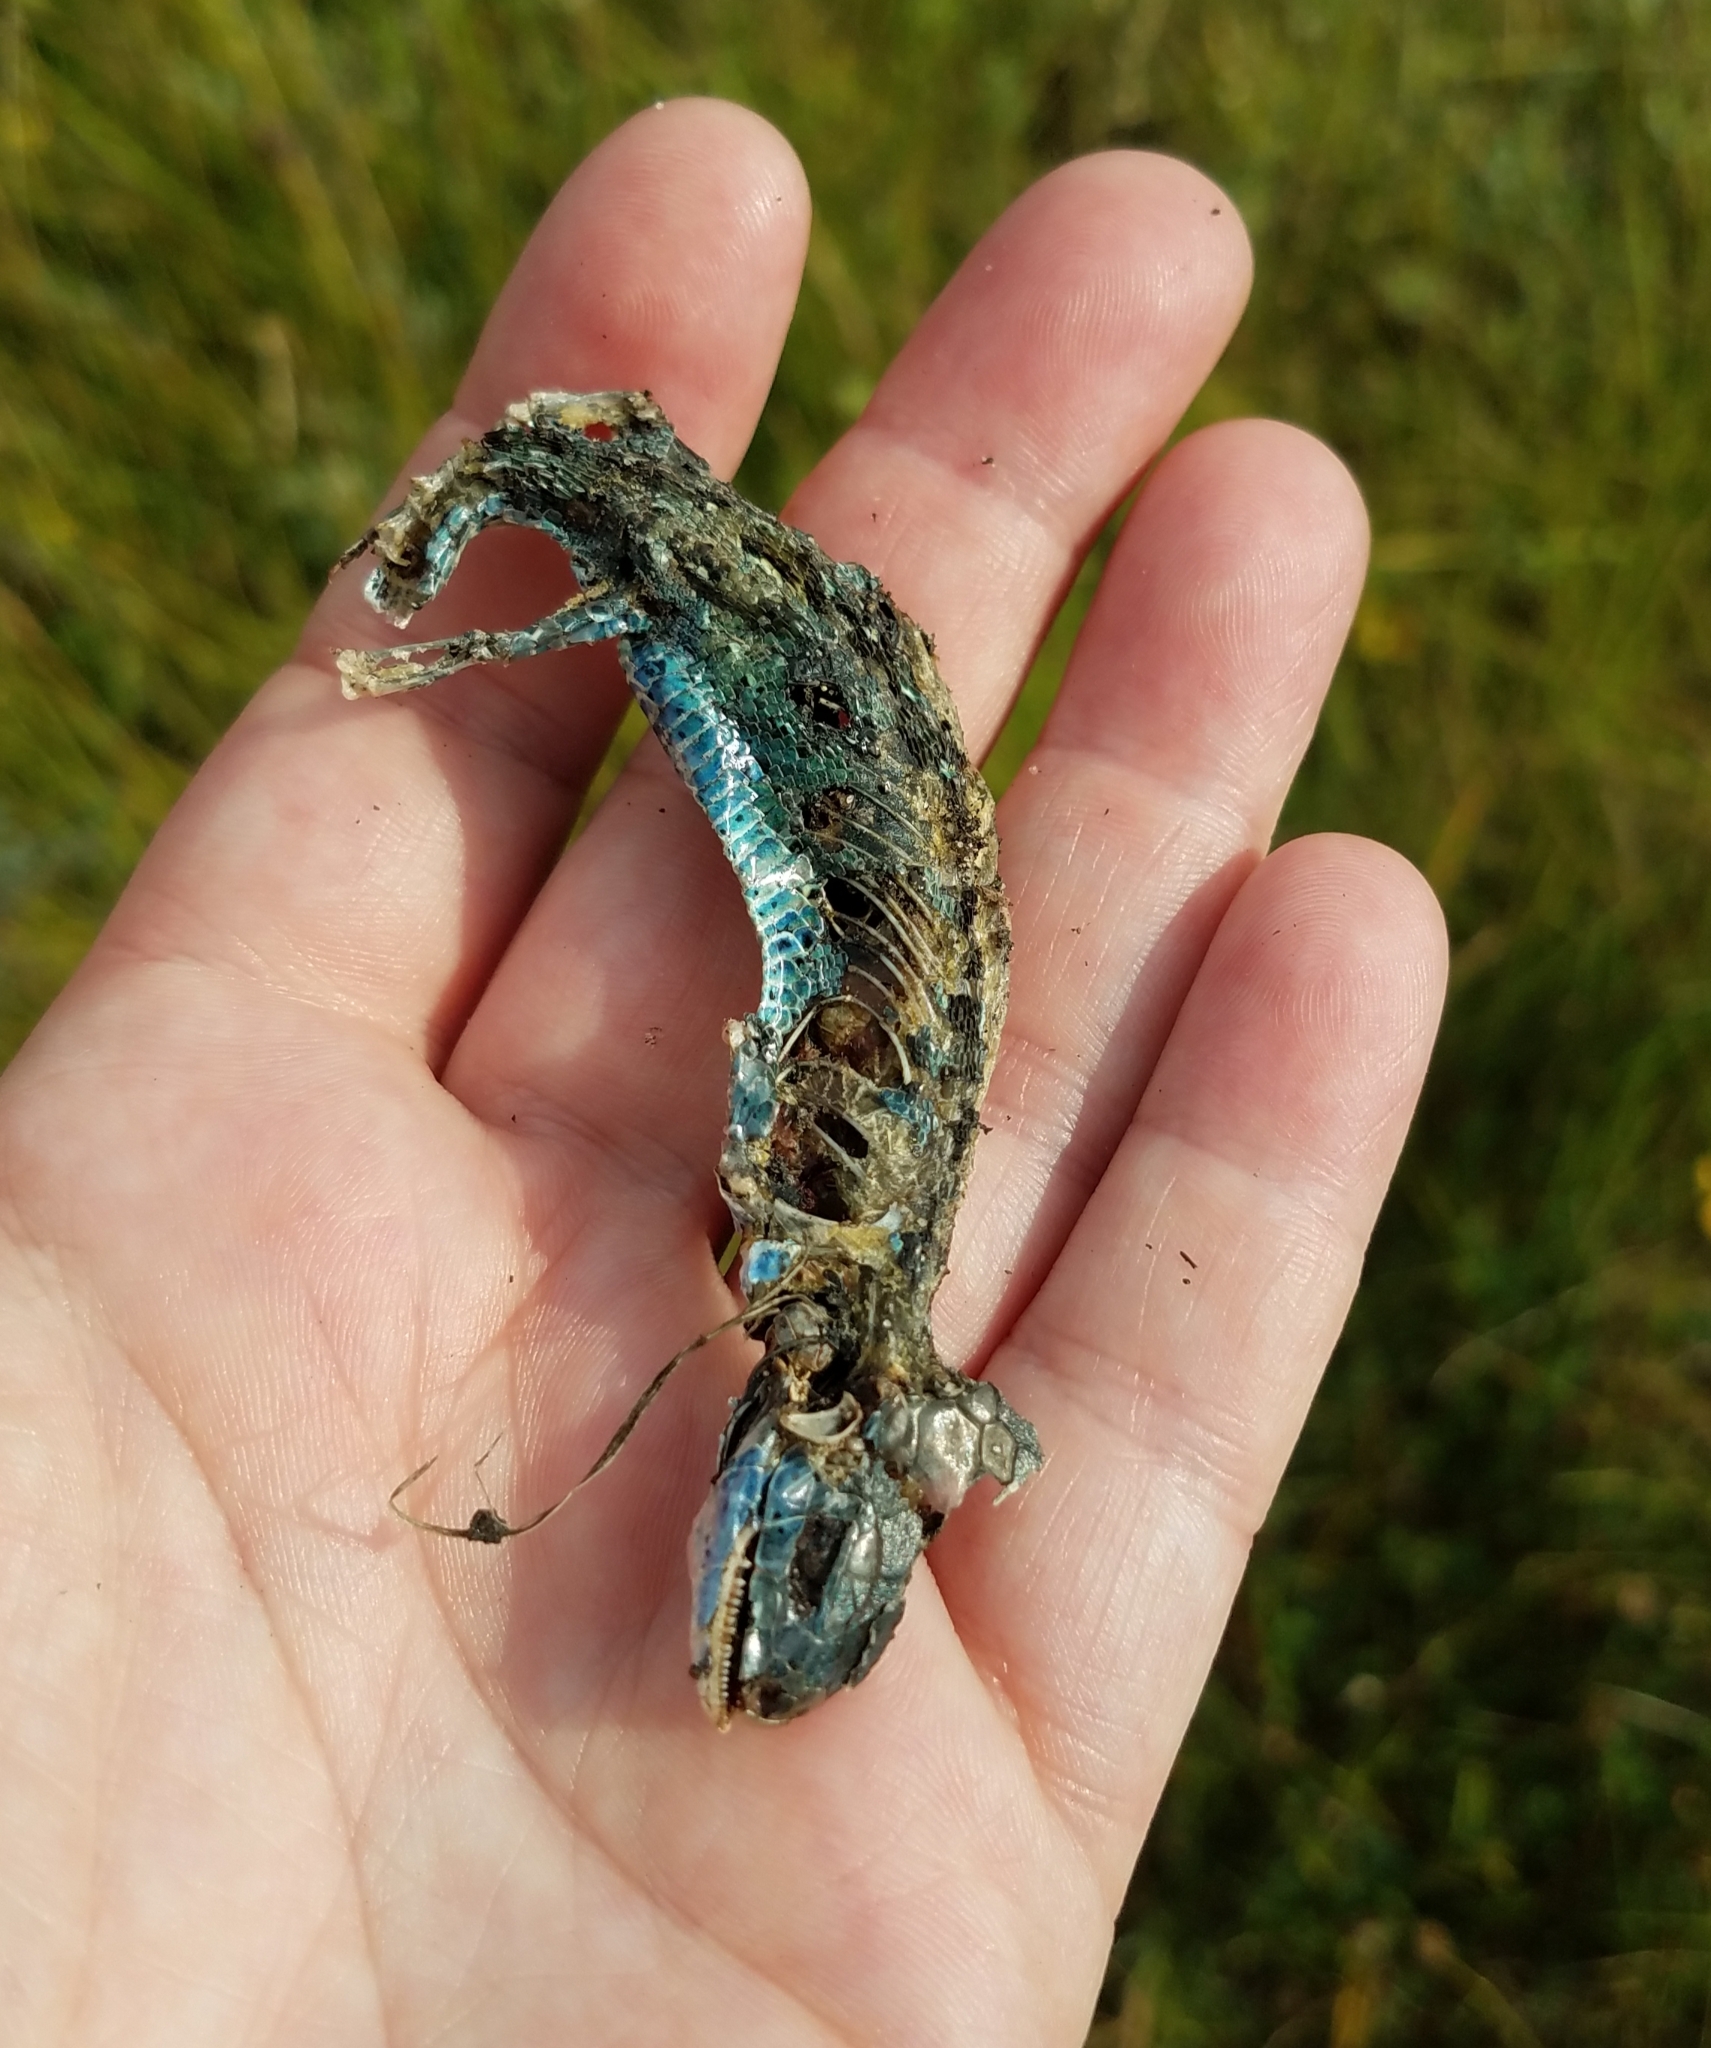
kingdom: Animalia
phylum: Chordata
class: Squamata
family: Lacertidae
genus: Lacerta
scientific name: Lacerta agilis
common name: Sand lizard
